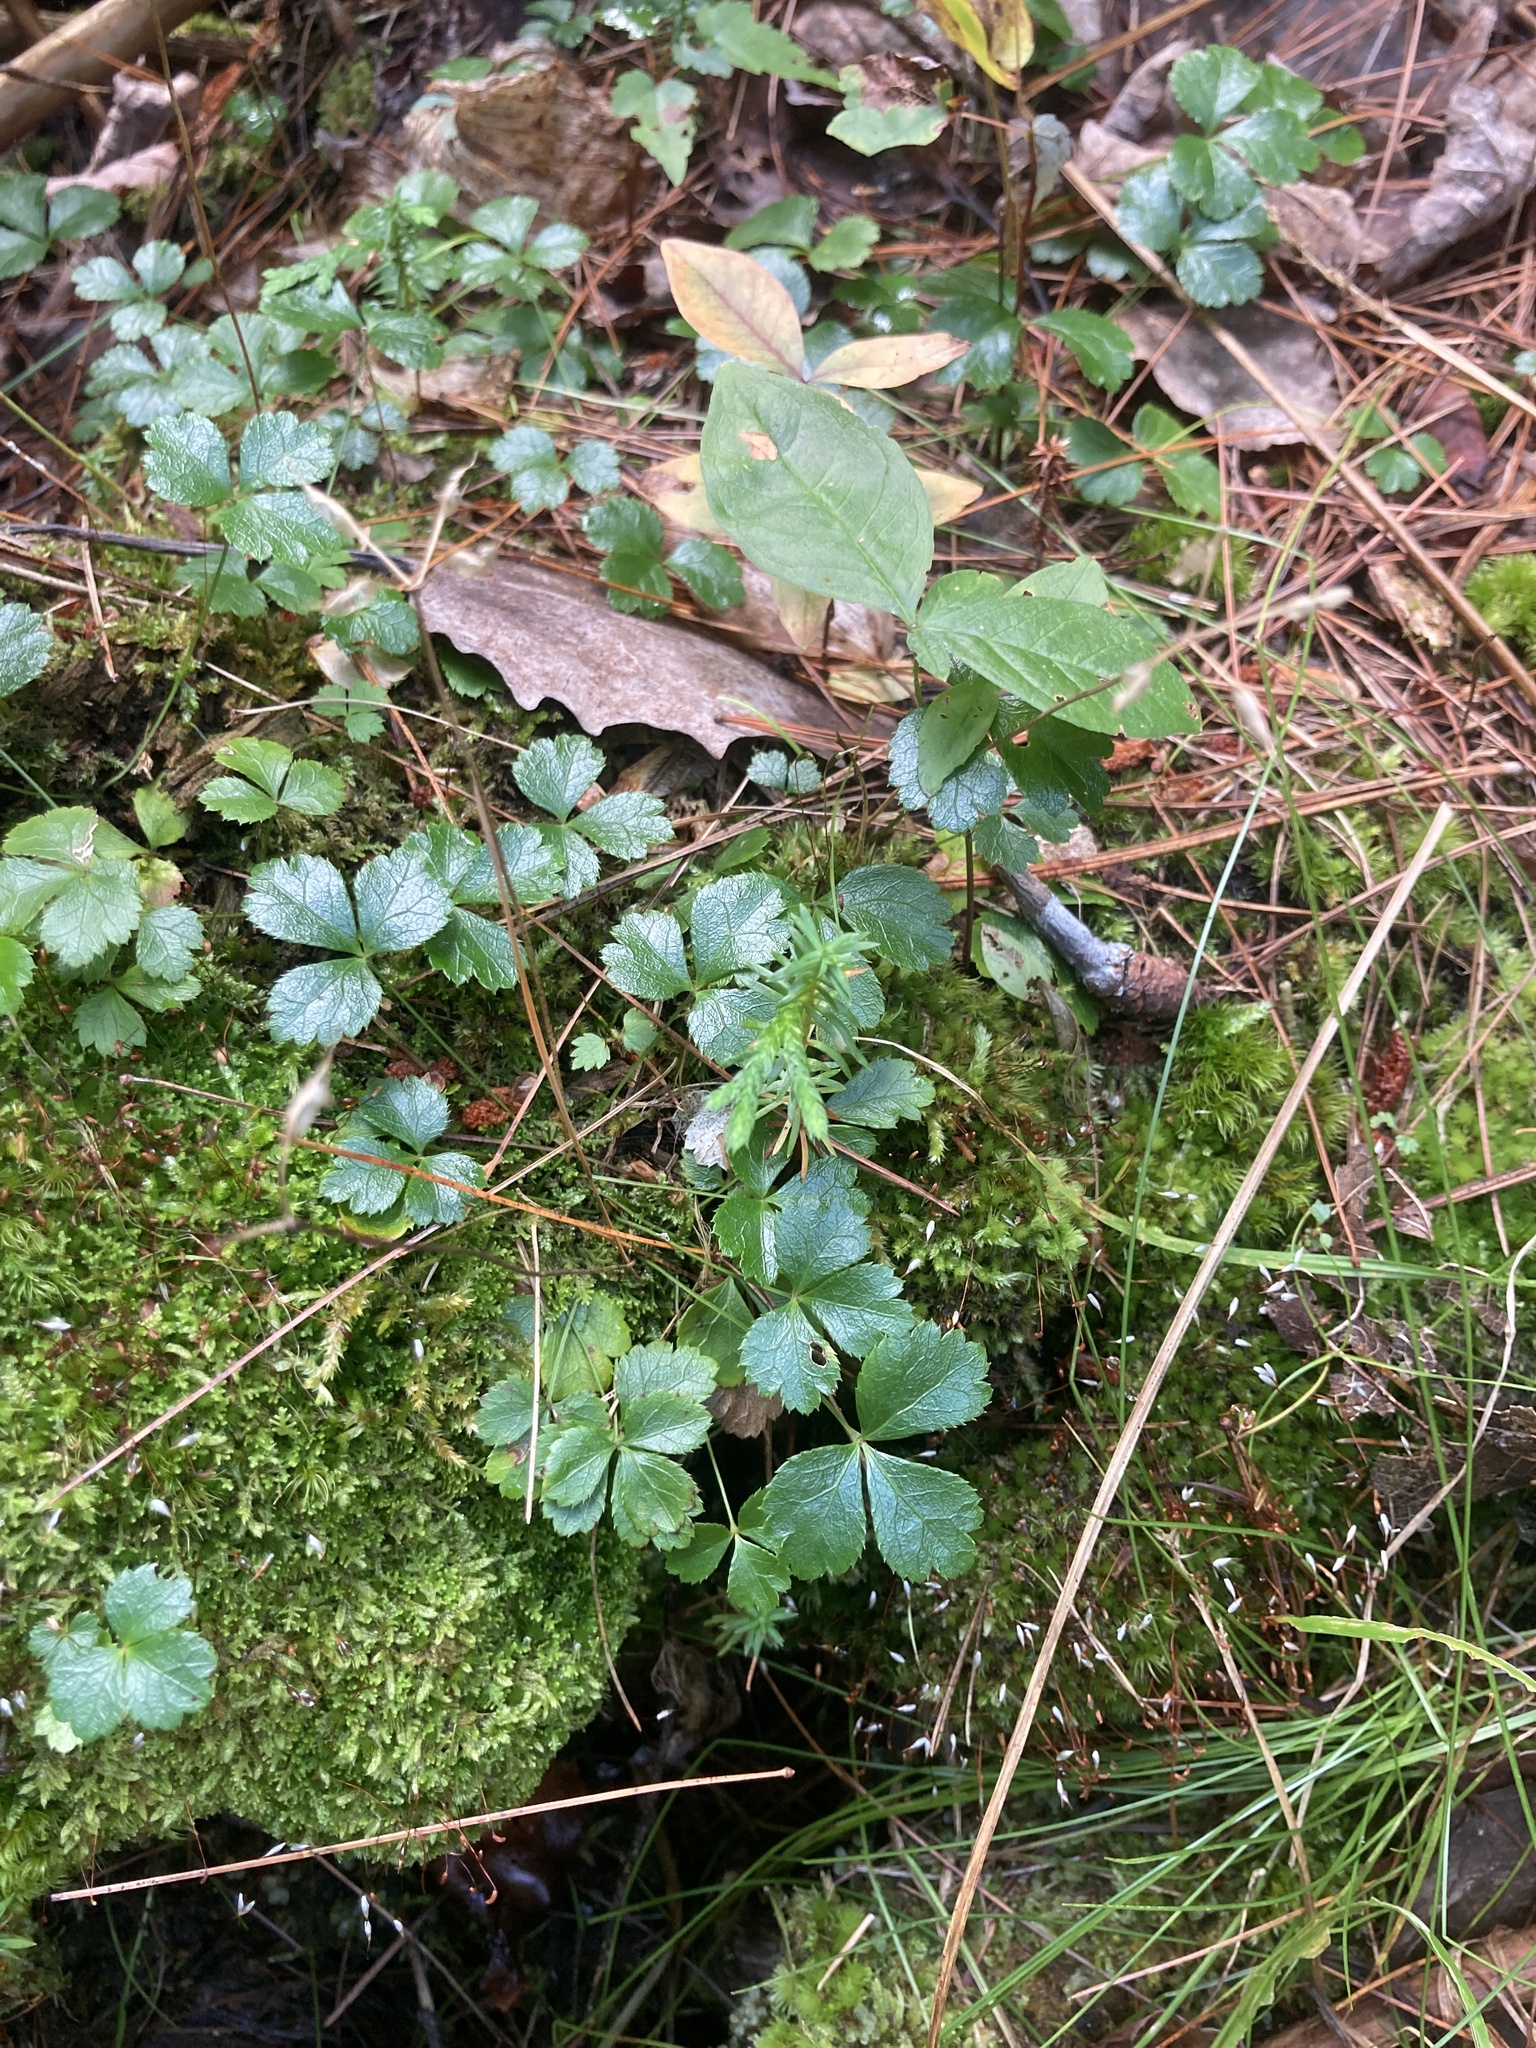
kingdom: Plantae
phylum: Tracheophyta
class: Magnoliopsida
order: Ranunculales
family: Ranunculaceae
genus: Coptis
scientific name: Coptis trifolia
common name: Canker-root
